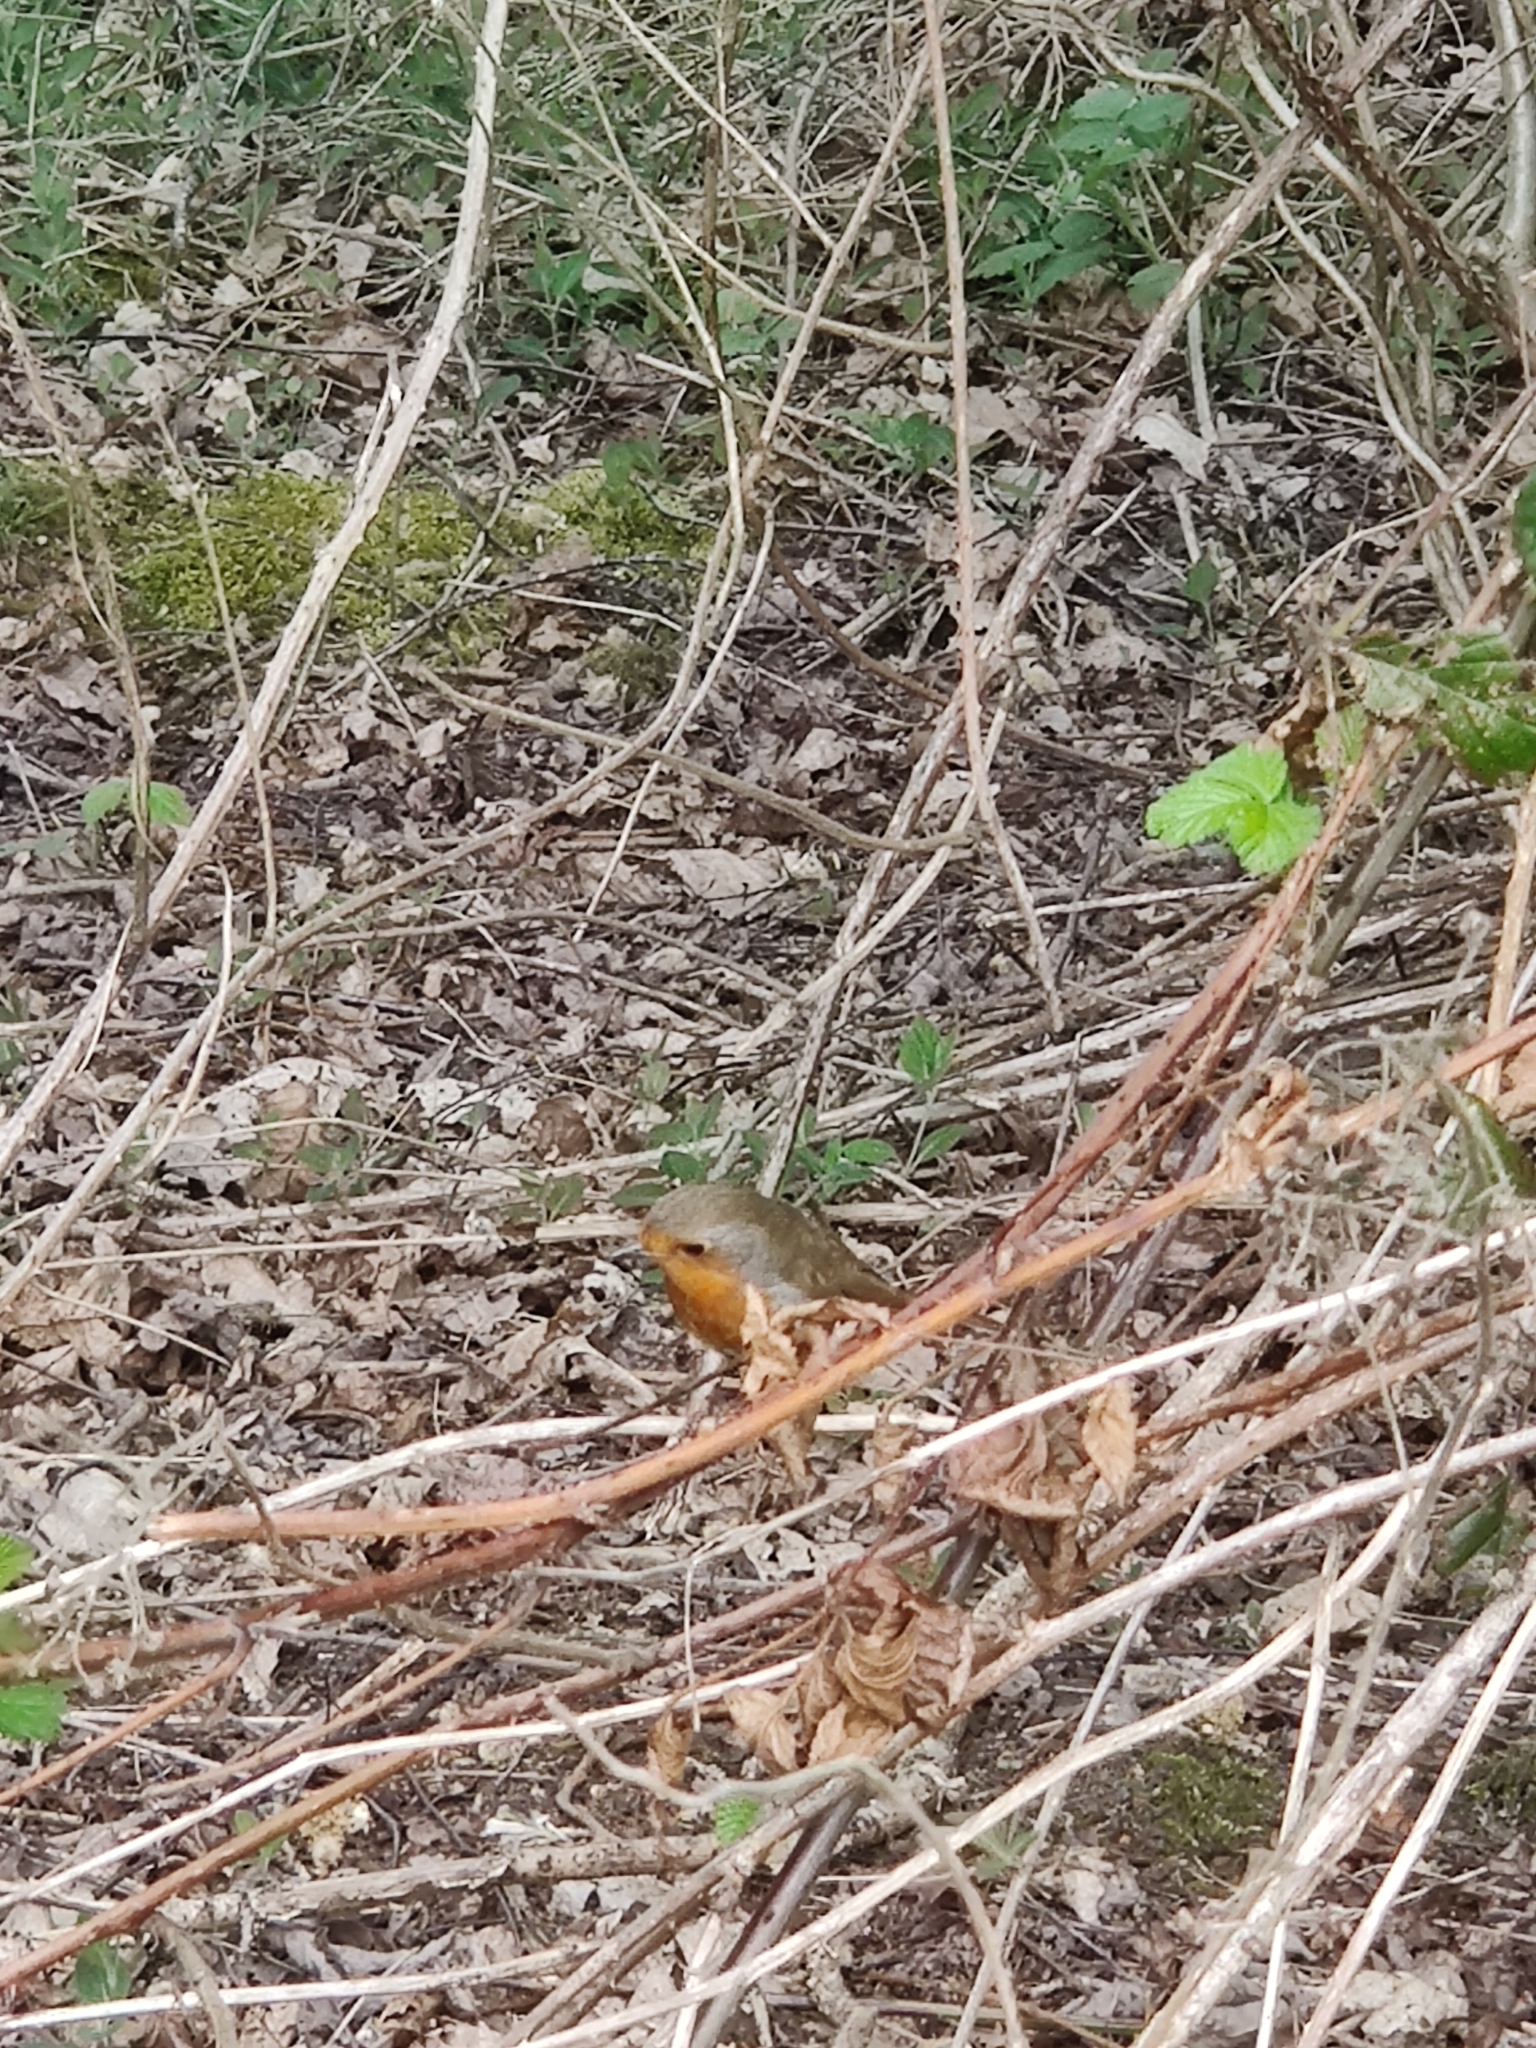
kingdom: Animalia
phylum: Chordata
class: Aves
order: Passeriformes
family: Muscicapidae
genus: Erithacus
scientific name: Erithacus rubecula
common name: European robin
